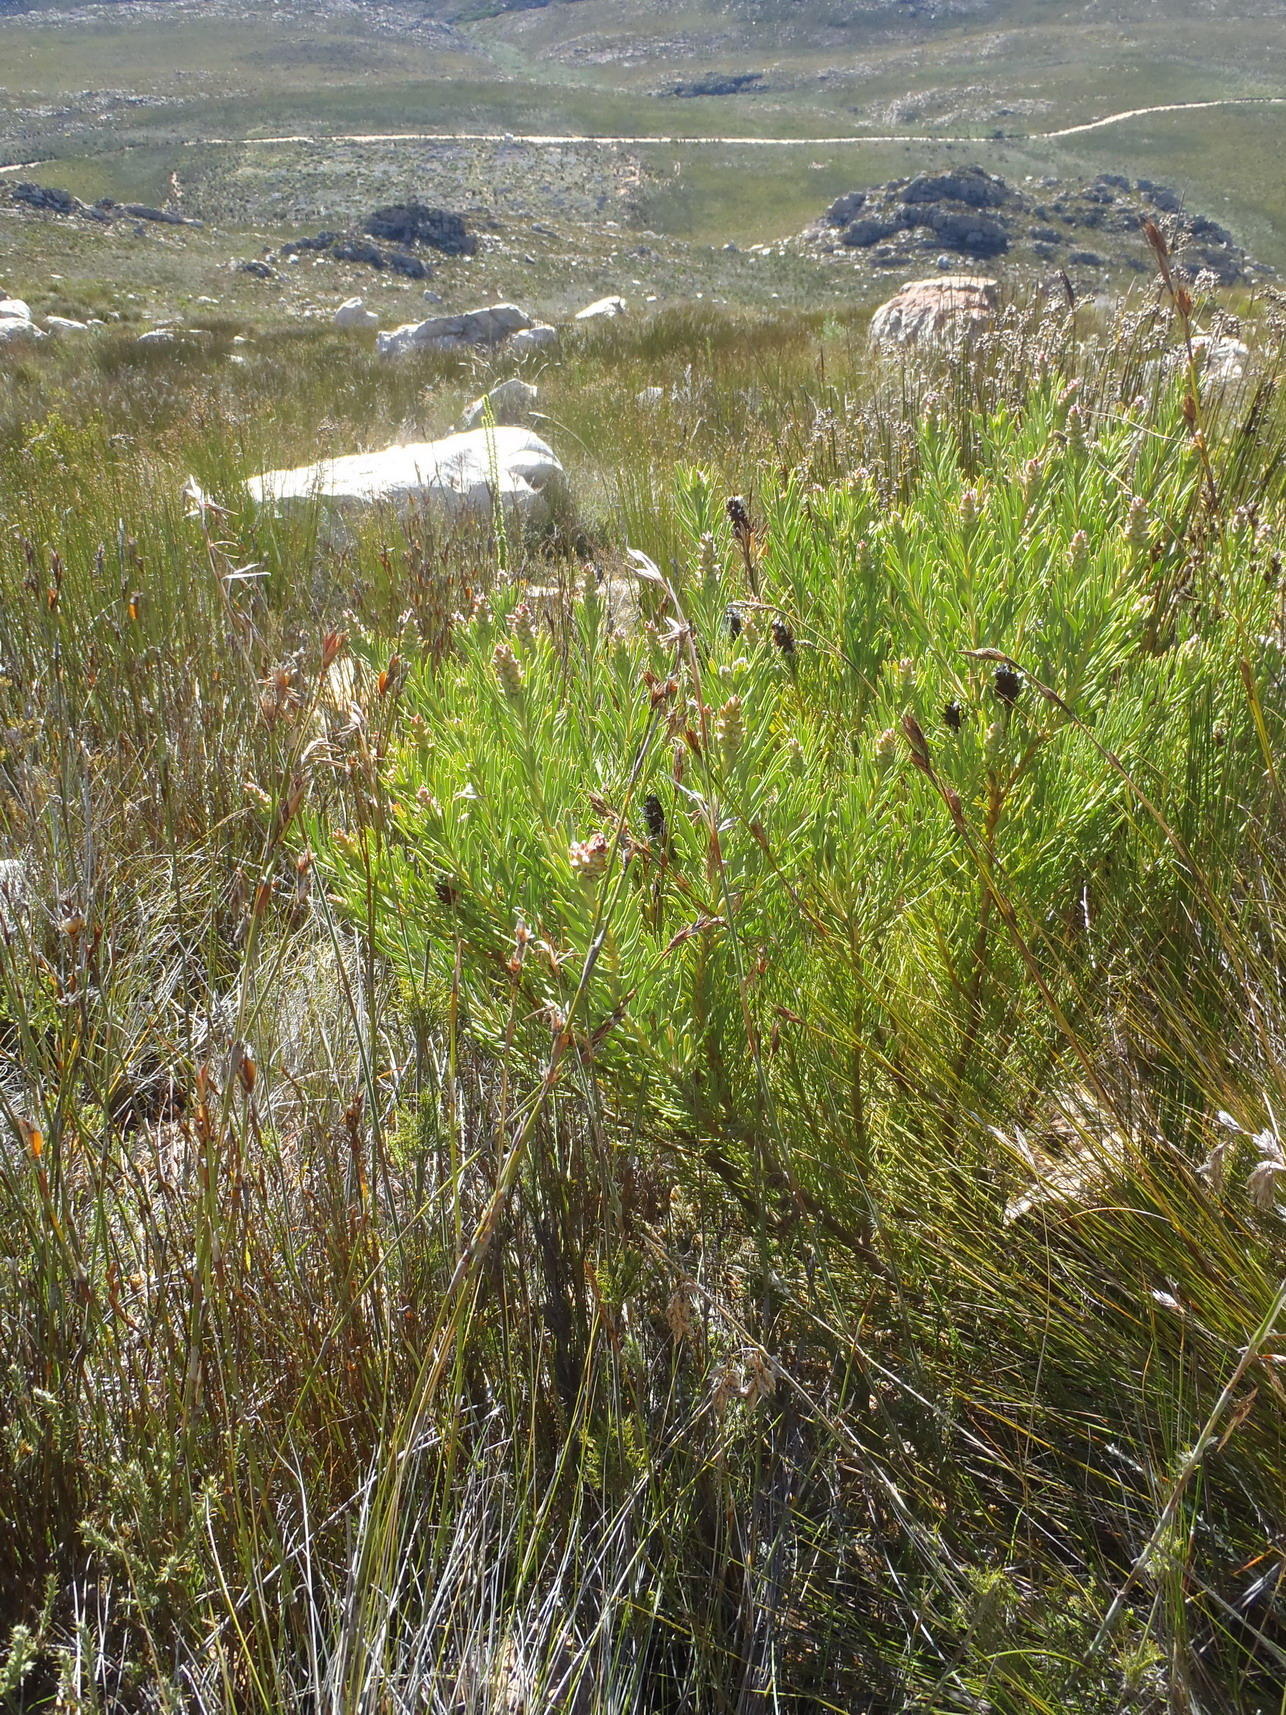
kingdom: Plantae
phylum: Tracheophyta
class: Magnoliopsida
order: Proteales
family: Proteaceae
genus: Paranomus
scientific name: Paranomus dregei
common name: Scented sceptre
